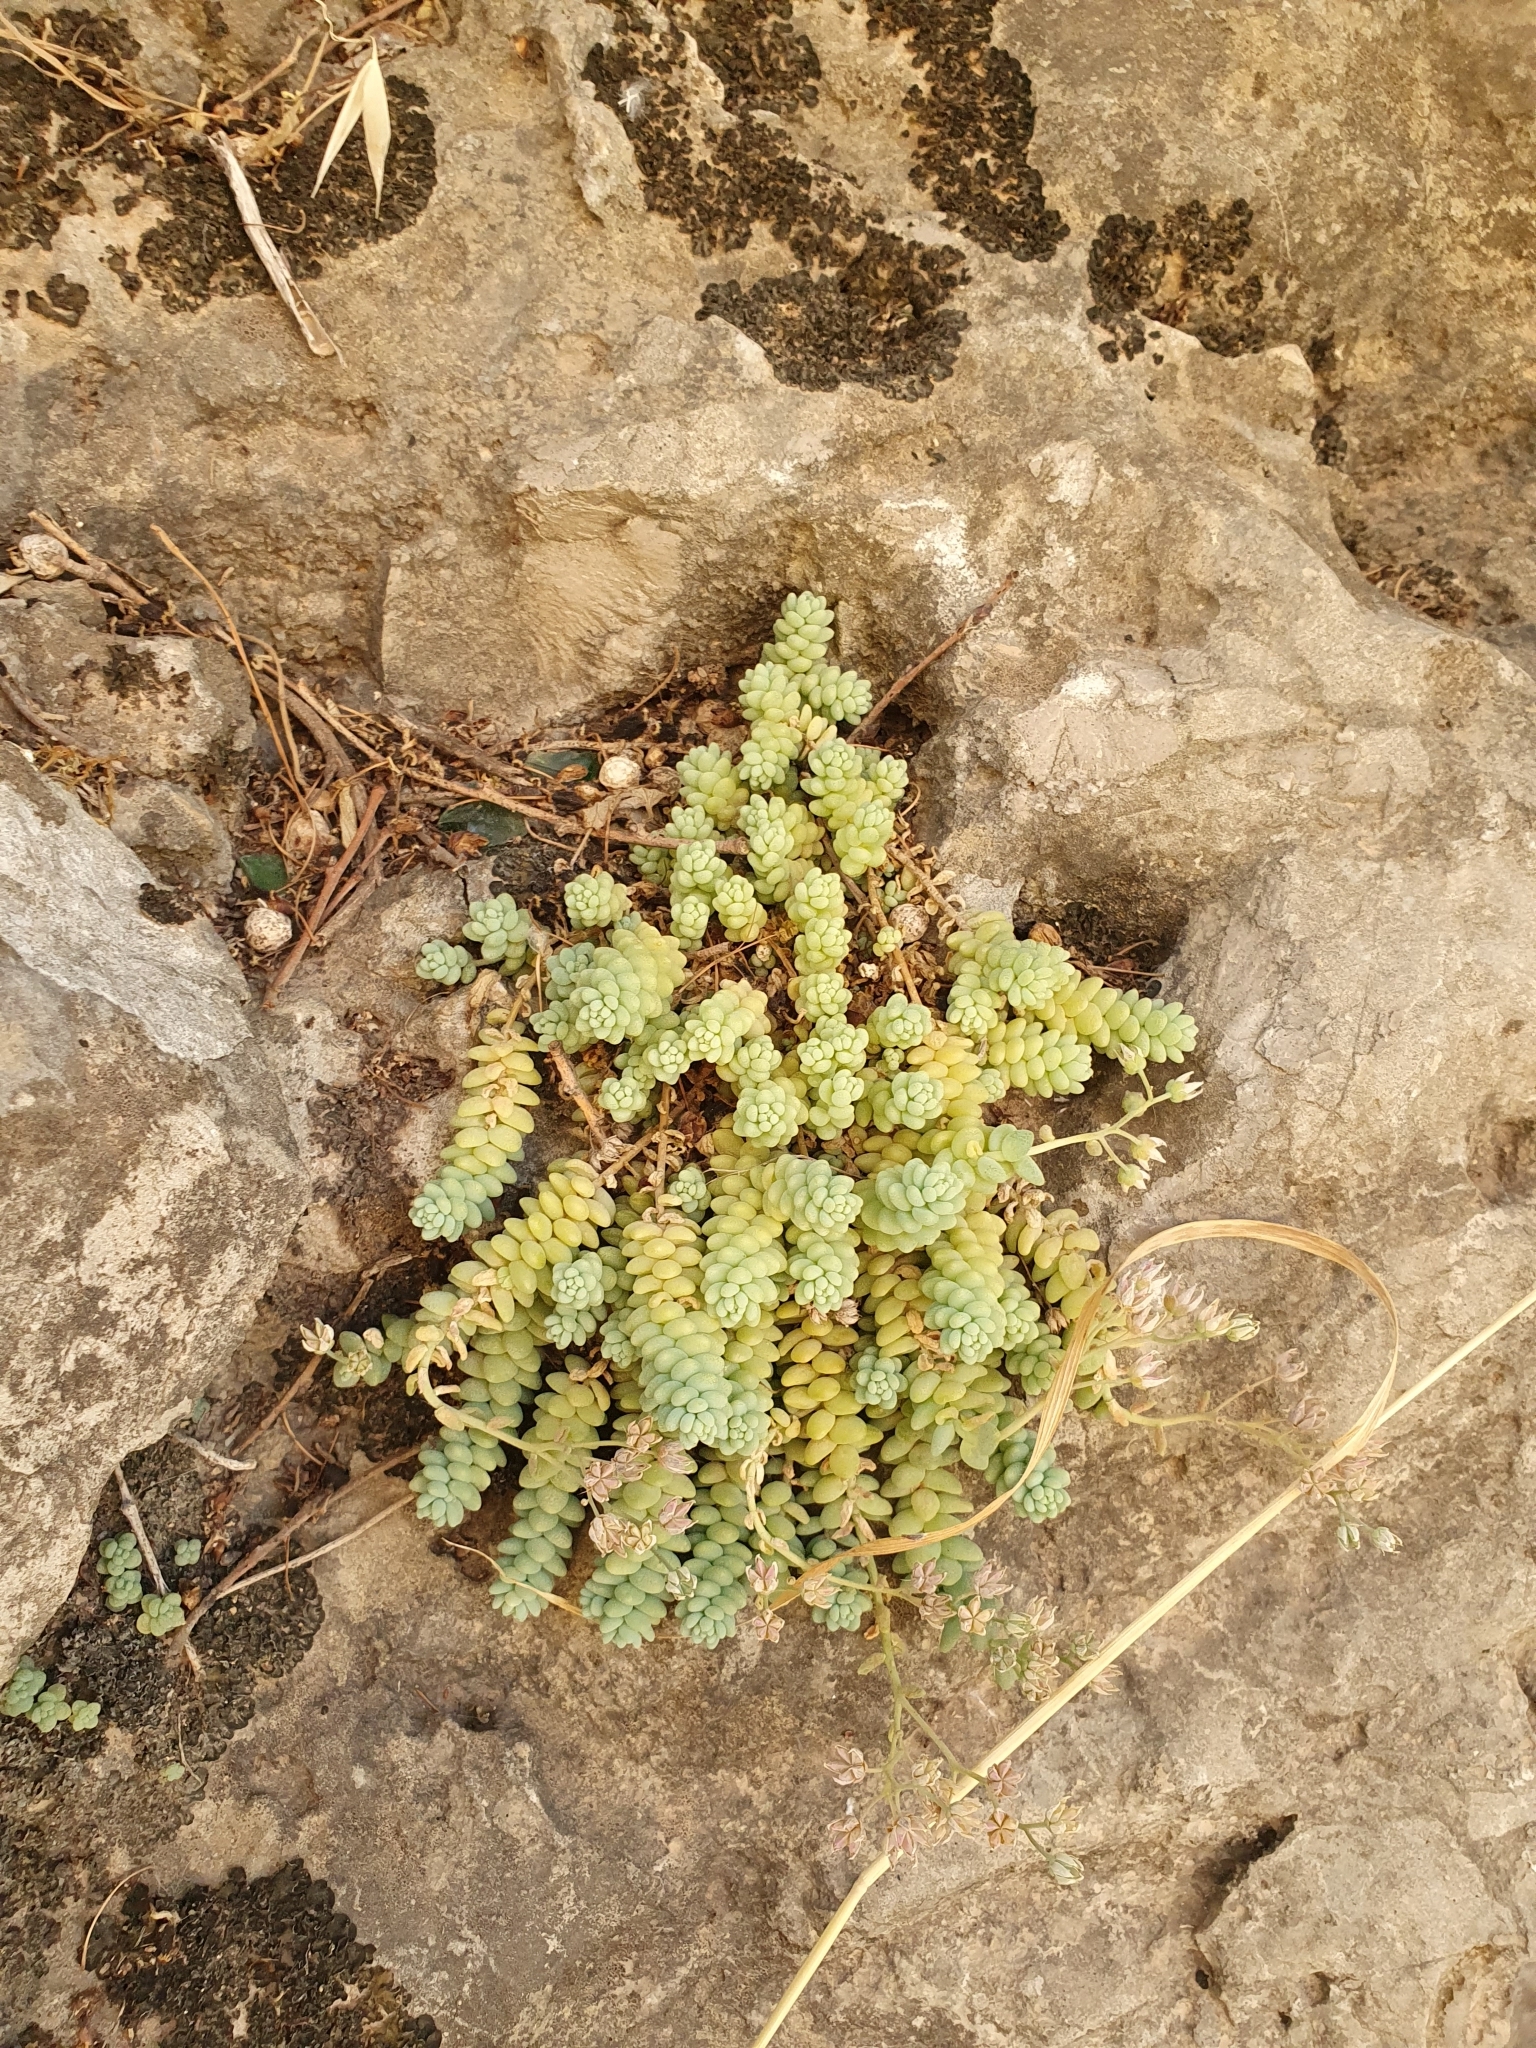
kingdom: Plantae
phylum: Tracheophyta
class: Magnoliopsida
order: Saxifragales
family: Crassulaceae
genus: Sedum
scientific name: Sedum dasyphyllum
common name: Thick-leaf stonecrop
